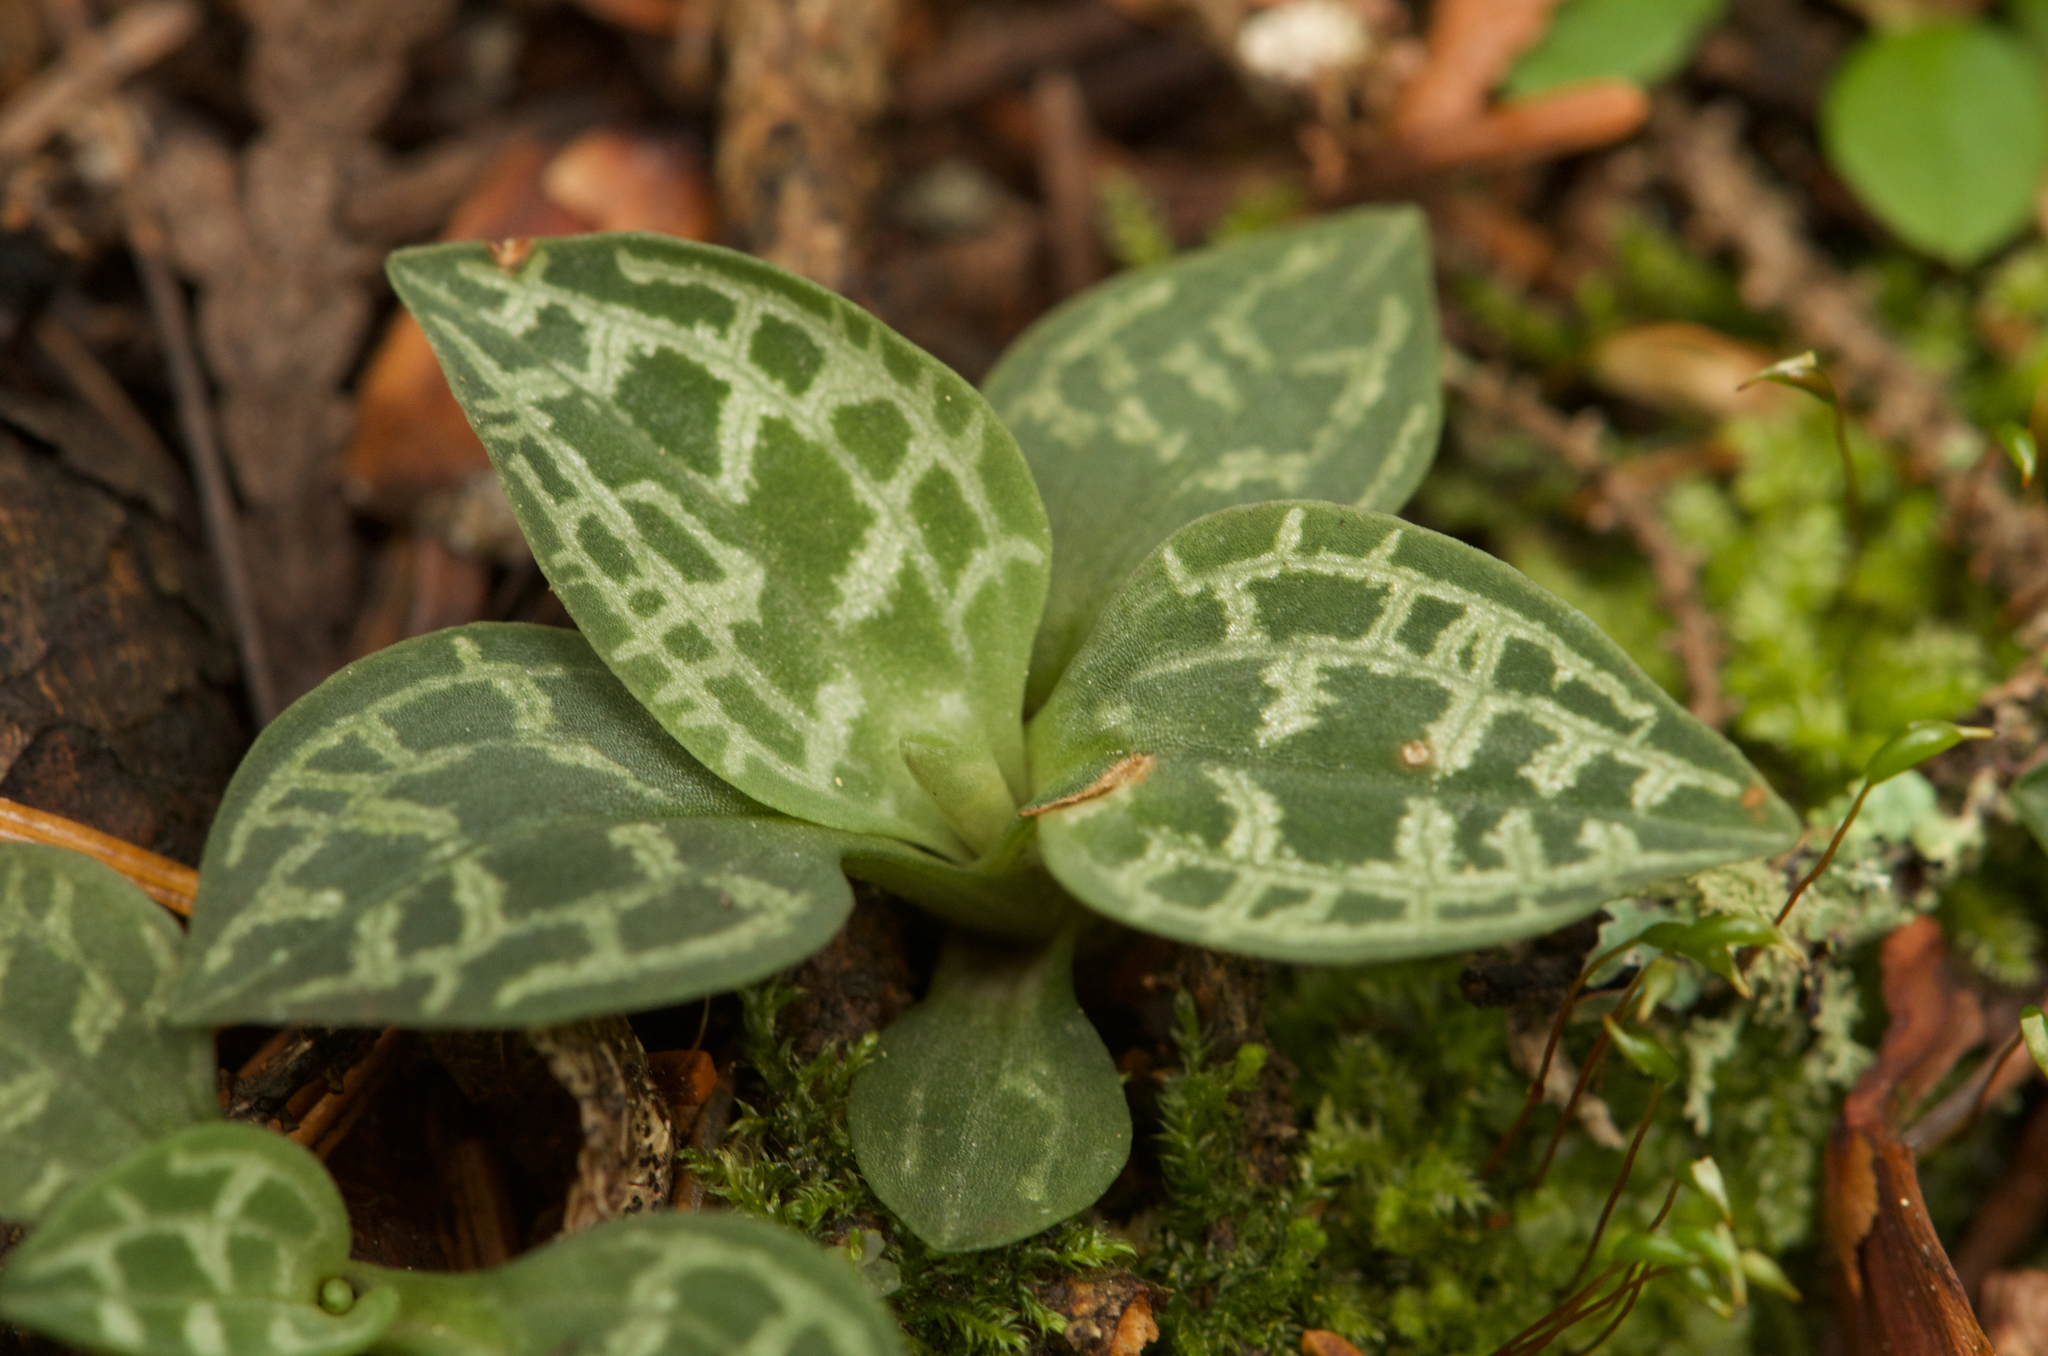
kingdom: Plantae
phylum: Tracheophyta
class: Liliopsida
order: Asparagales
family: Orchidaceae
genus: Goodyera
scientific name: Goodyera repens
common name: Creeping lady's-tresses
